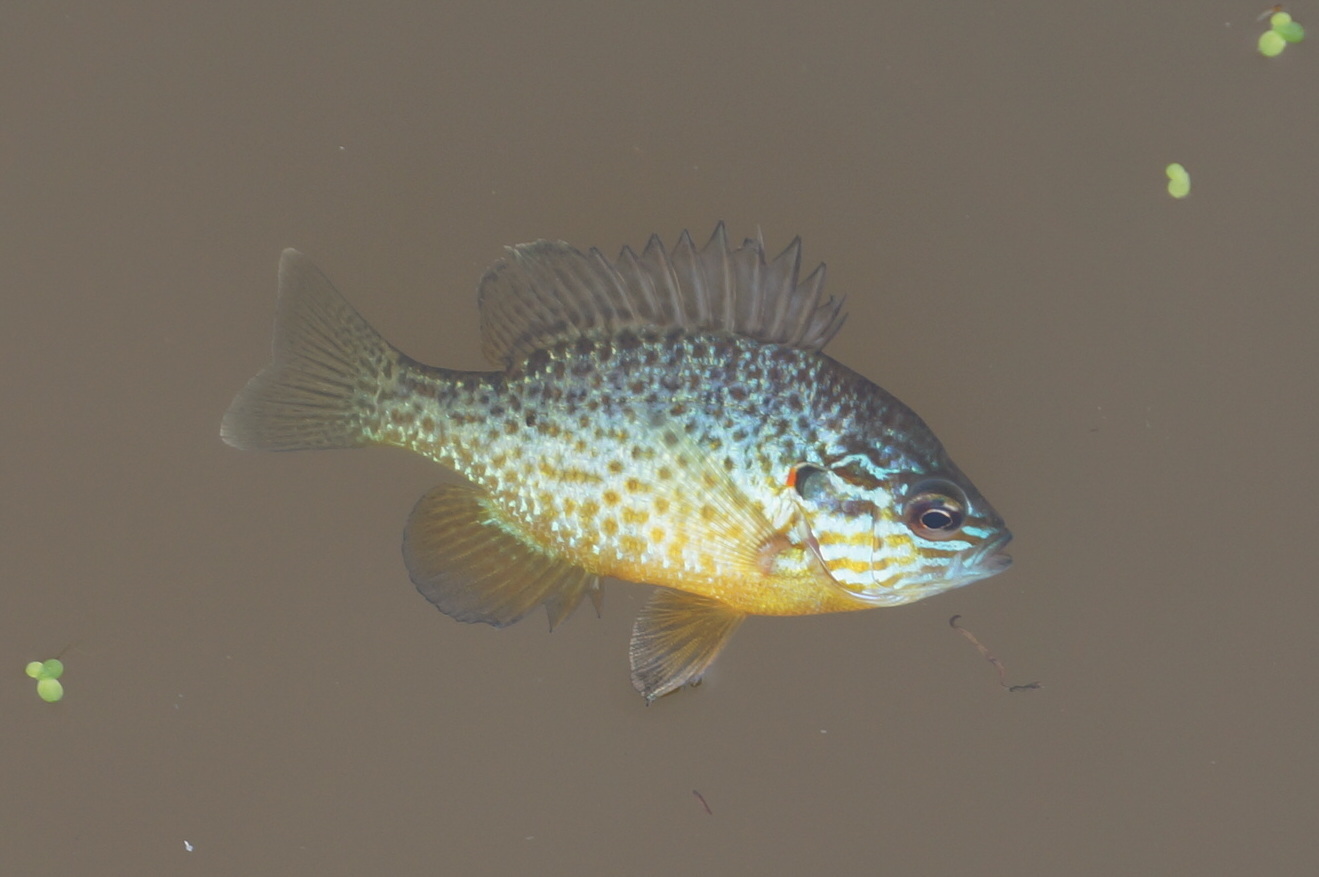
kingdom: Animalia
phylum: Chordata
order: Perciformes
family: Centrarchidae
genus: Lepomis
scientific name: Lepomis gibbosus
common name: Pumpkinseed
